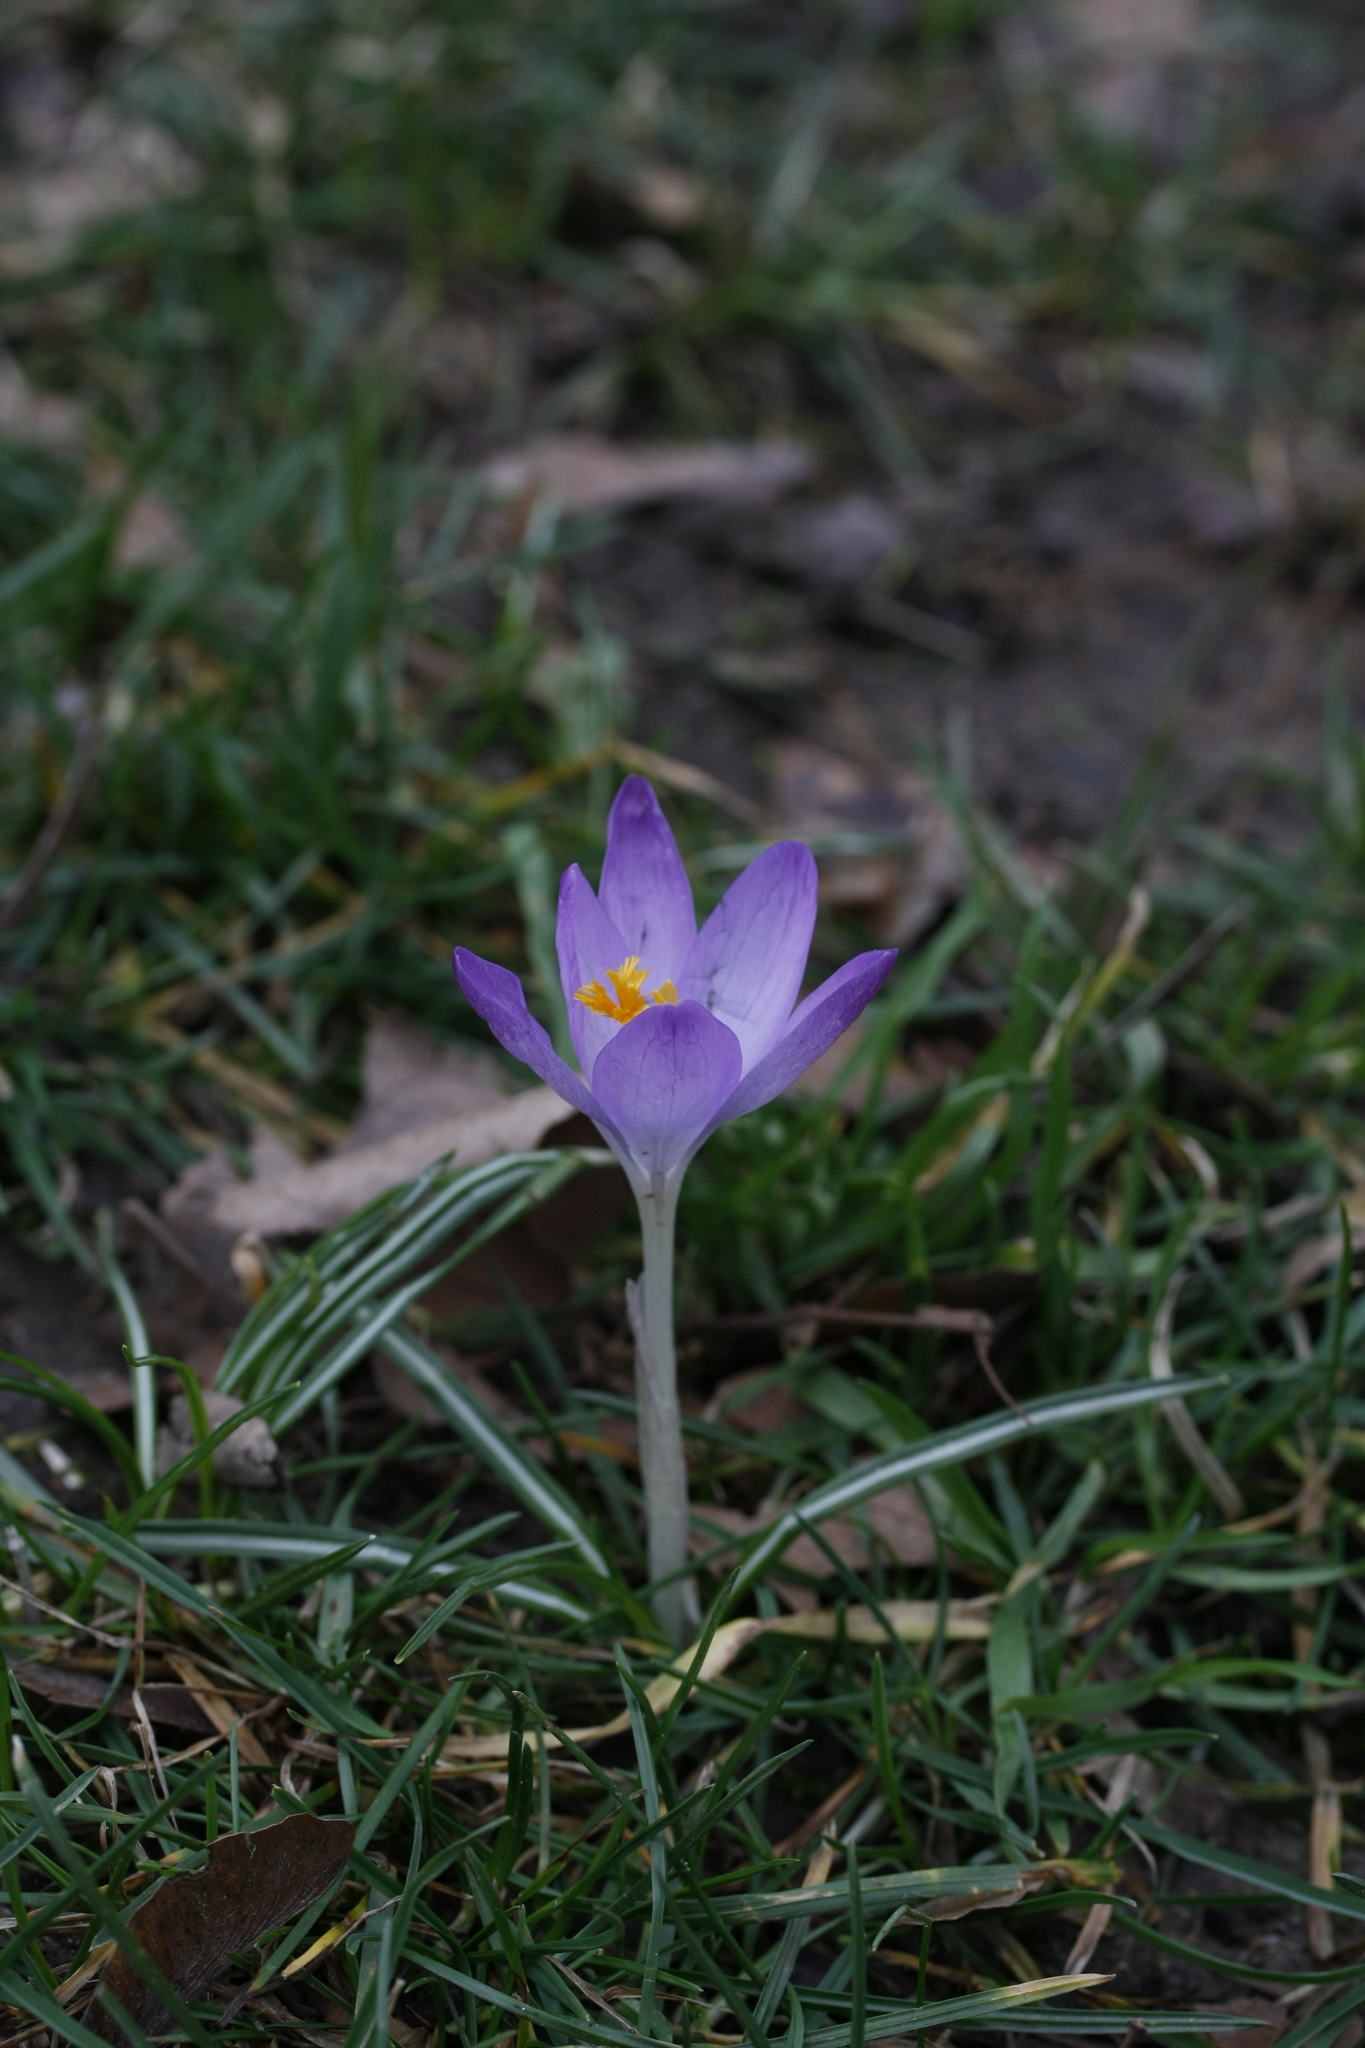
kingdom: Plantae
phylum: Tracheophyta
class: Liliopsida
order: Asparagales
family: Iridaceae
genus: Crocus
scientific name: Crocus tommasinianus
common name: Early crocus
